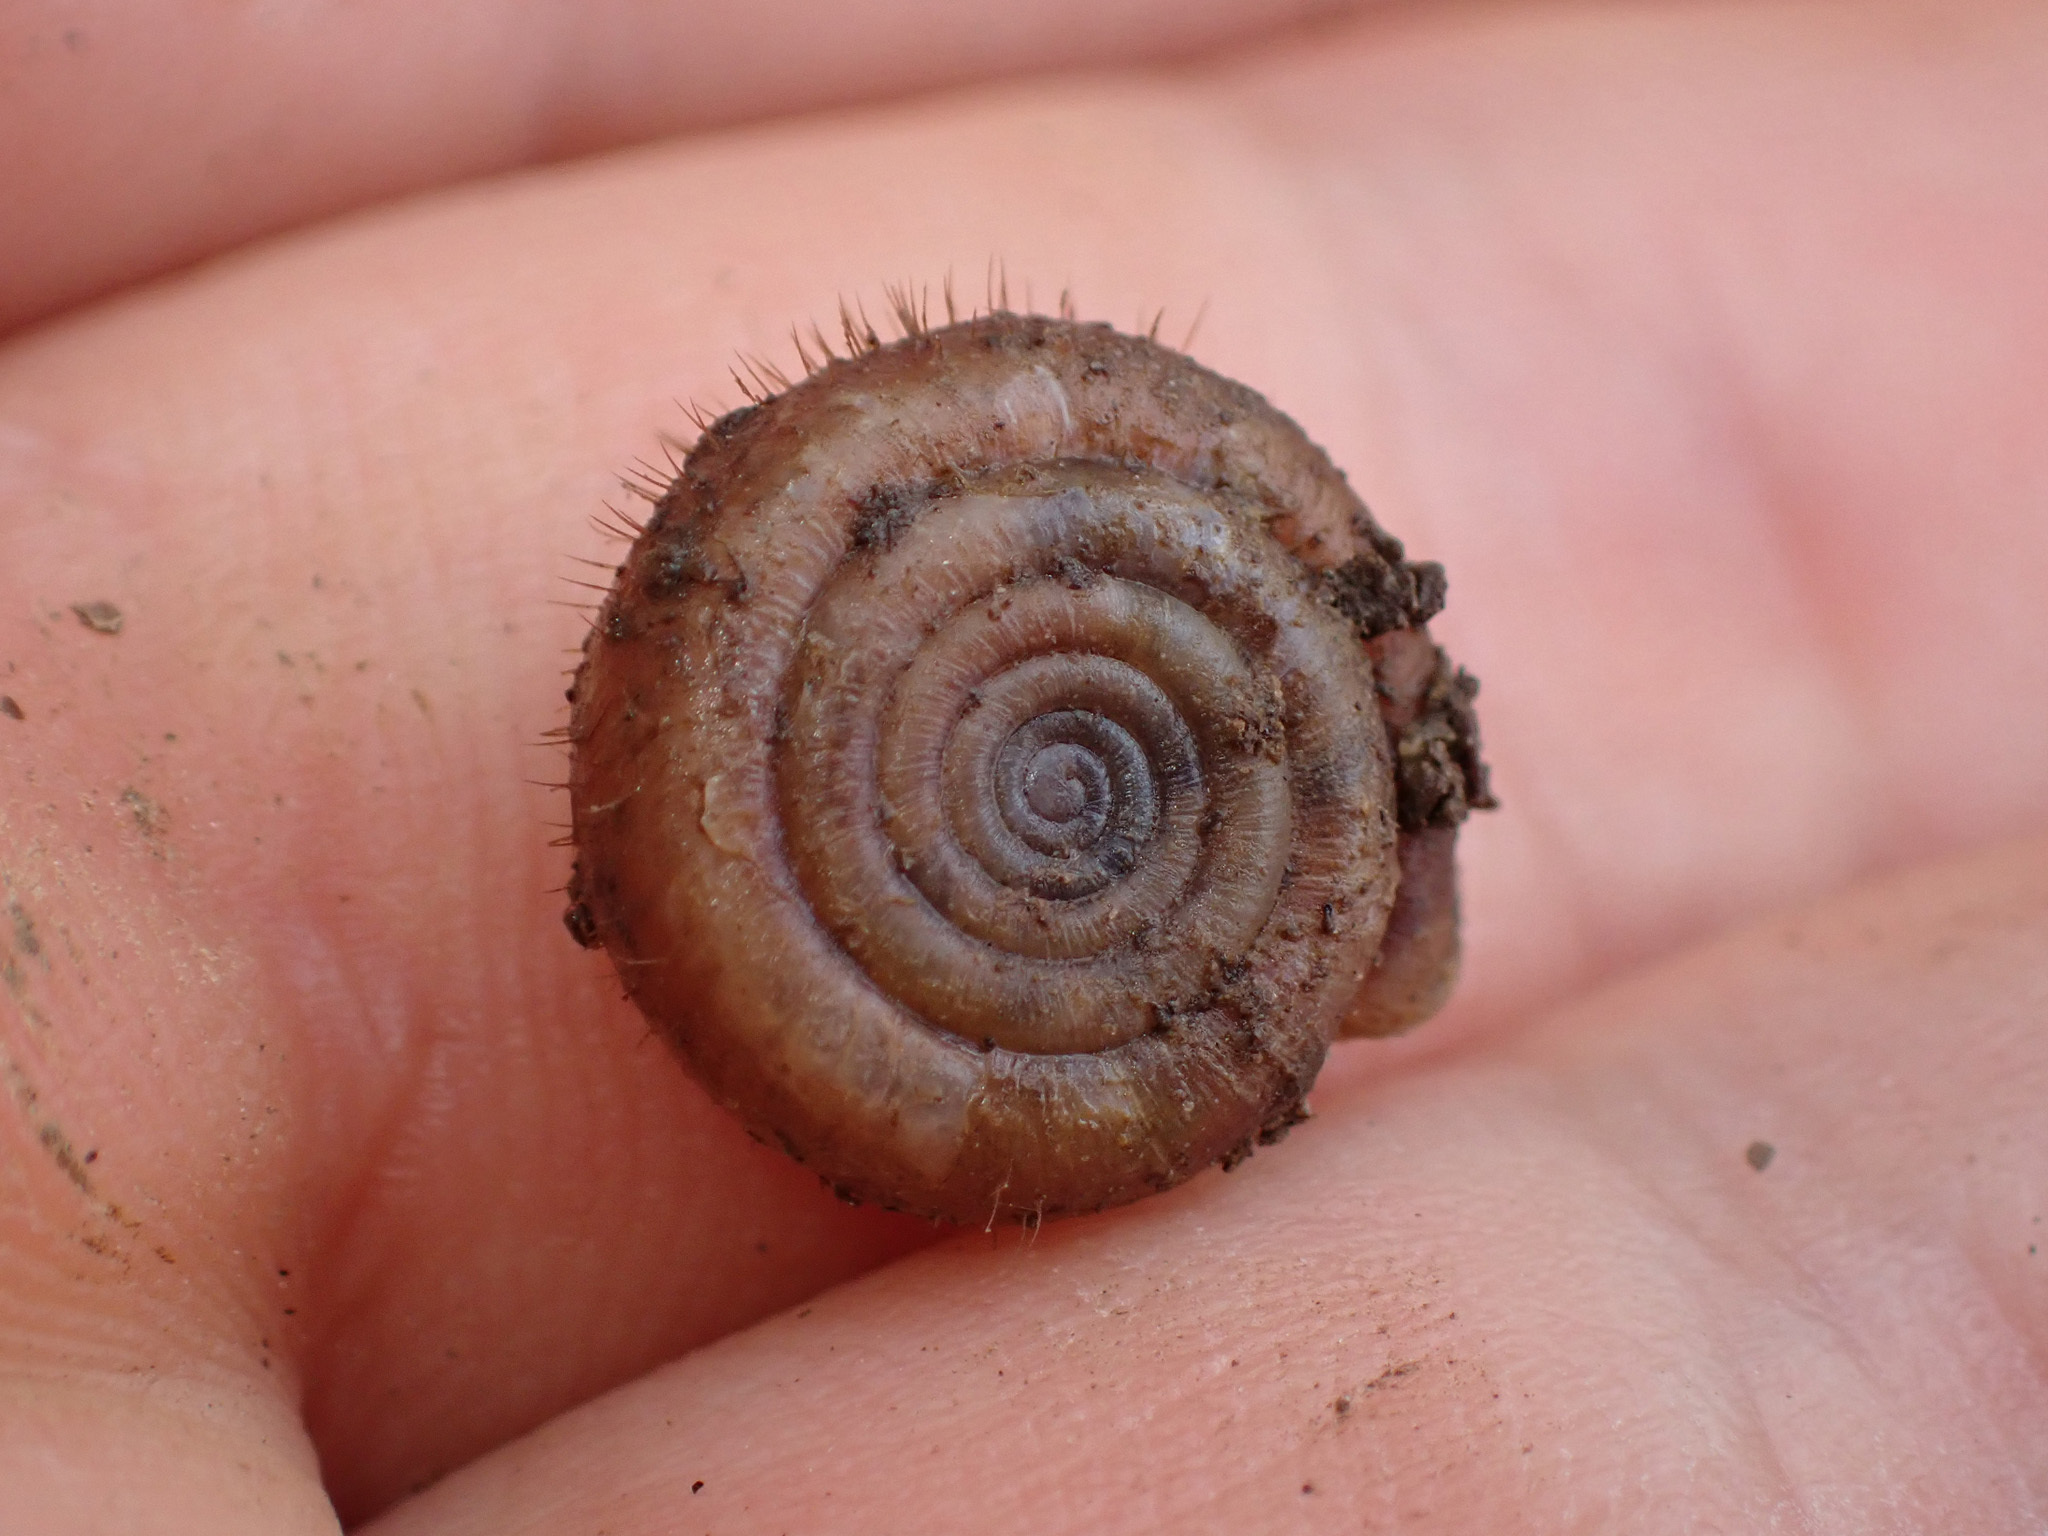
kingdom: Animalia
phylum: Mollusca
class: Gastropoda
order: Stylommatophora
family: Helicodontidae
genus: Helicodonta
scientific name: Helicodonta obvoluta
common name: Cheese snail
